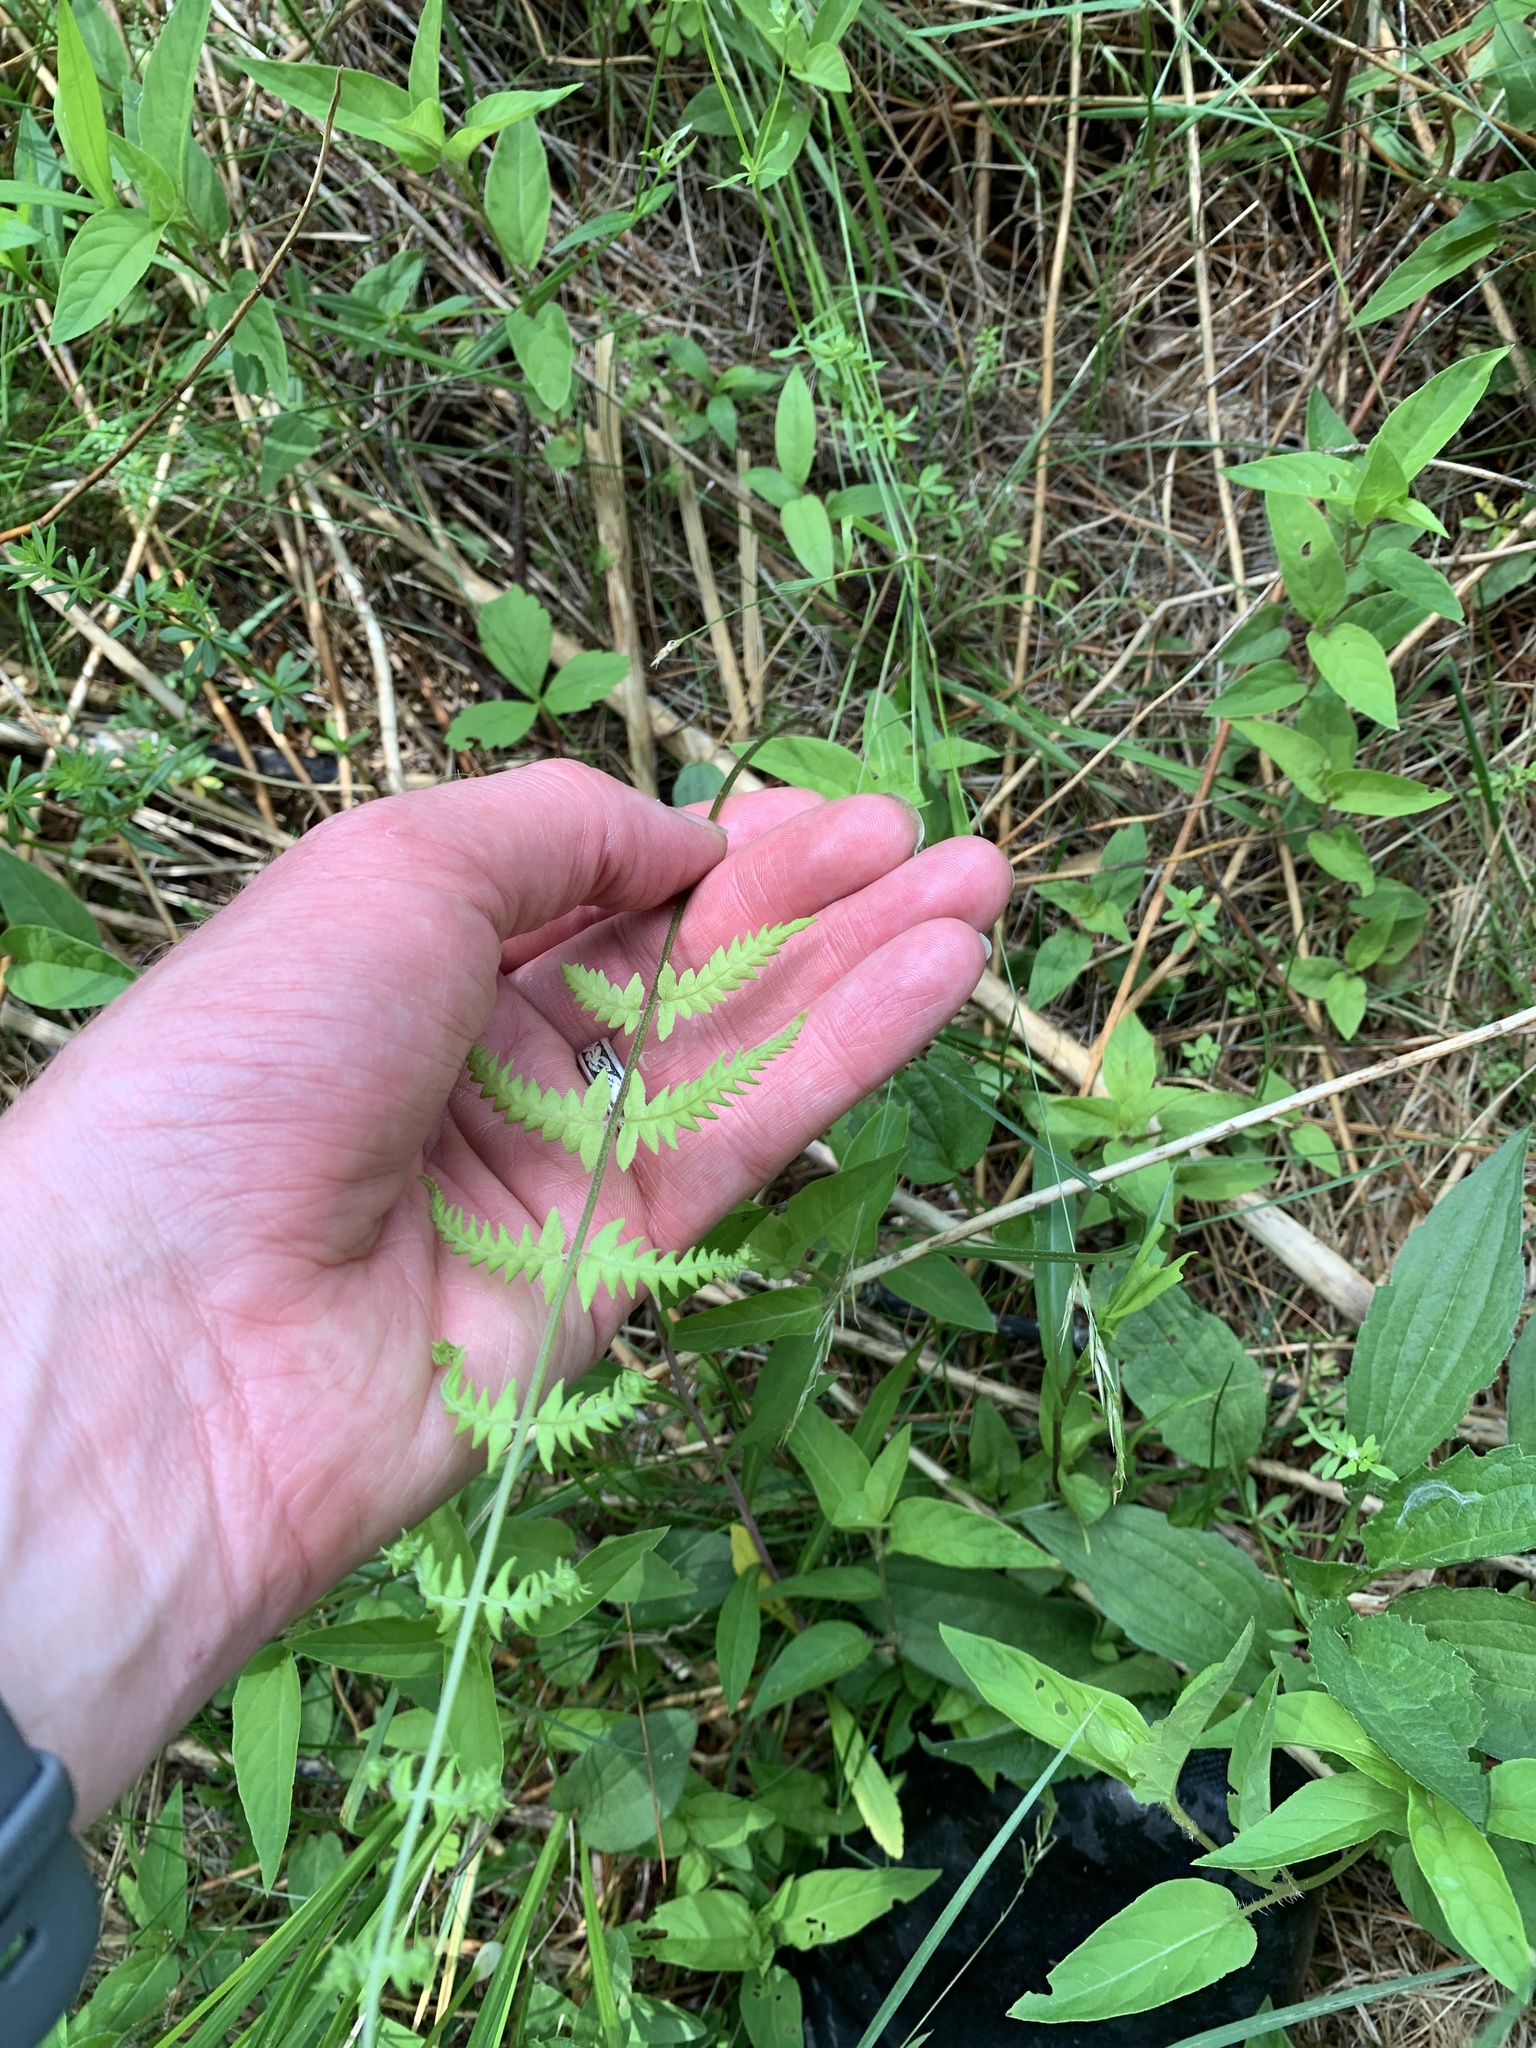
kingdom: Plantae
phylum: Tracheophyta
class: Polypodiopsida
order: Polypodiales
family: Thelypteridaceae
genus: Thelypteris
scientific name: Thelypteris palustris
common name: Marsh fern
